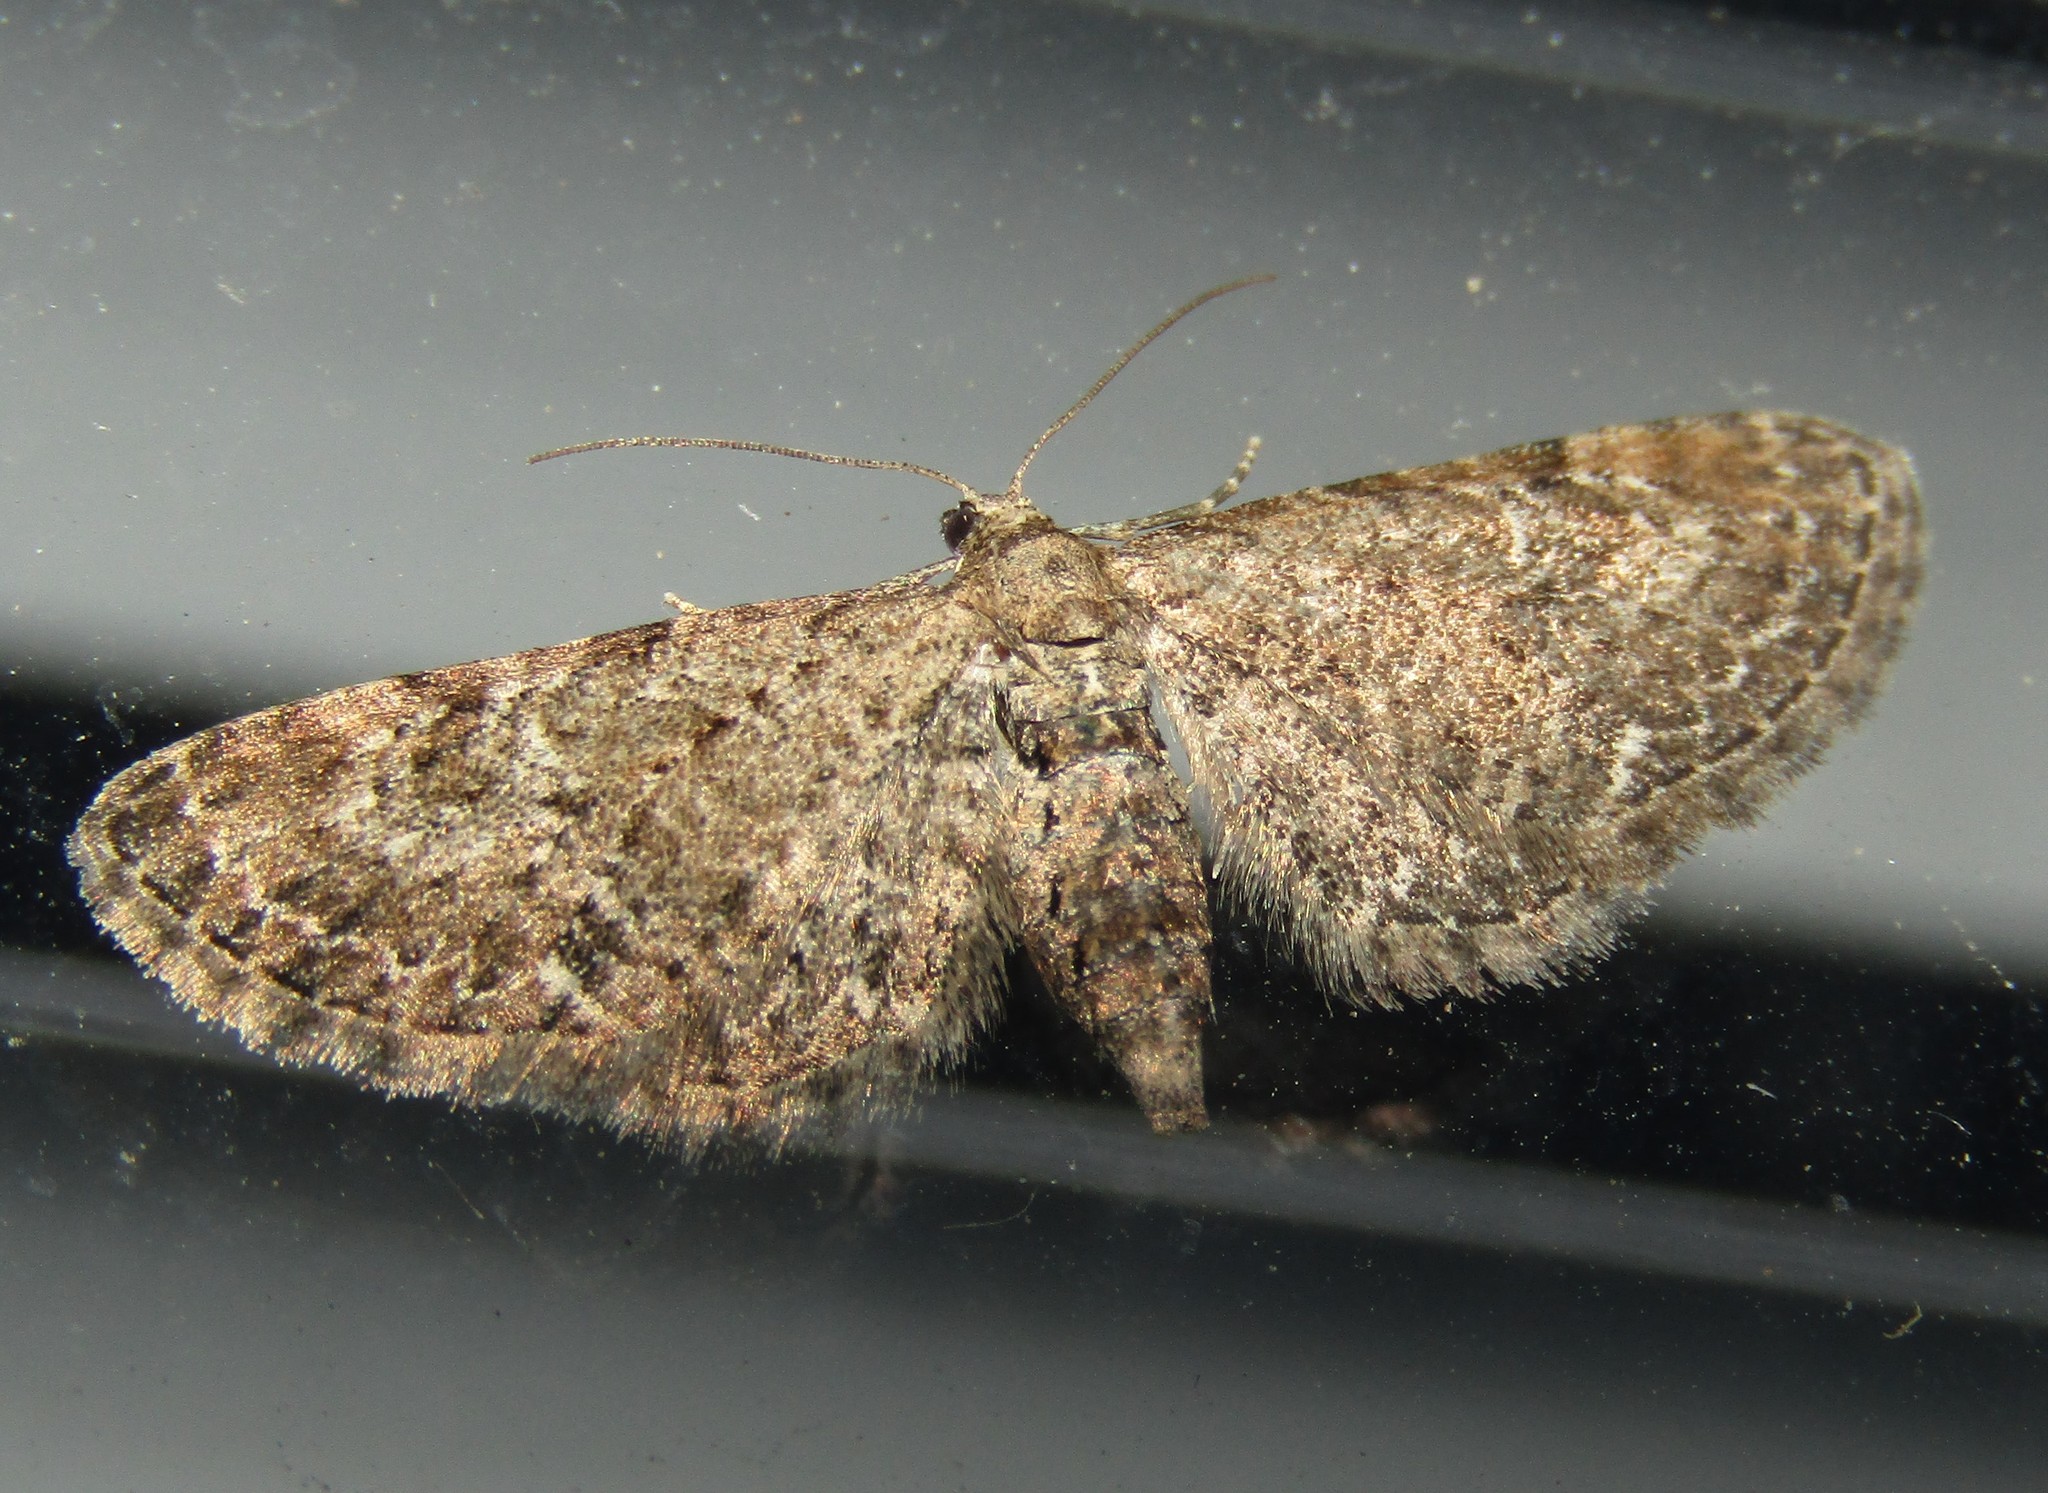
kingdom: Animalia
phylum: Arthropoda
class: Insecta
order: Lepidoptera
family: Geometridae
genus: Eupithecia
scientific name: Eupithecia vulgata
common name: Common pug
